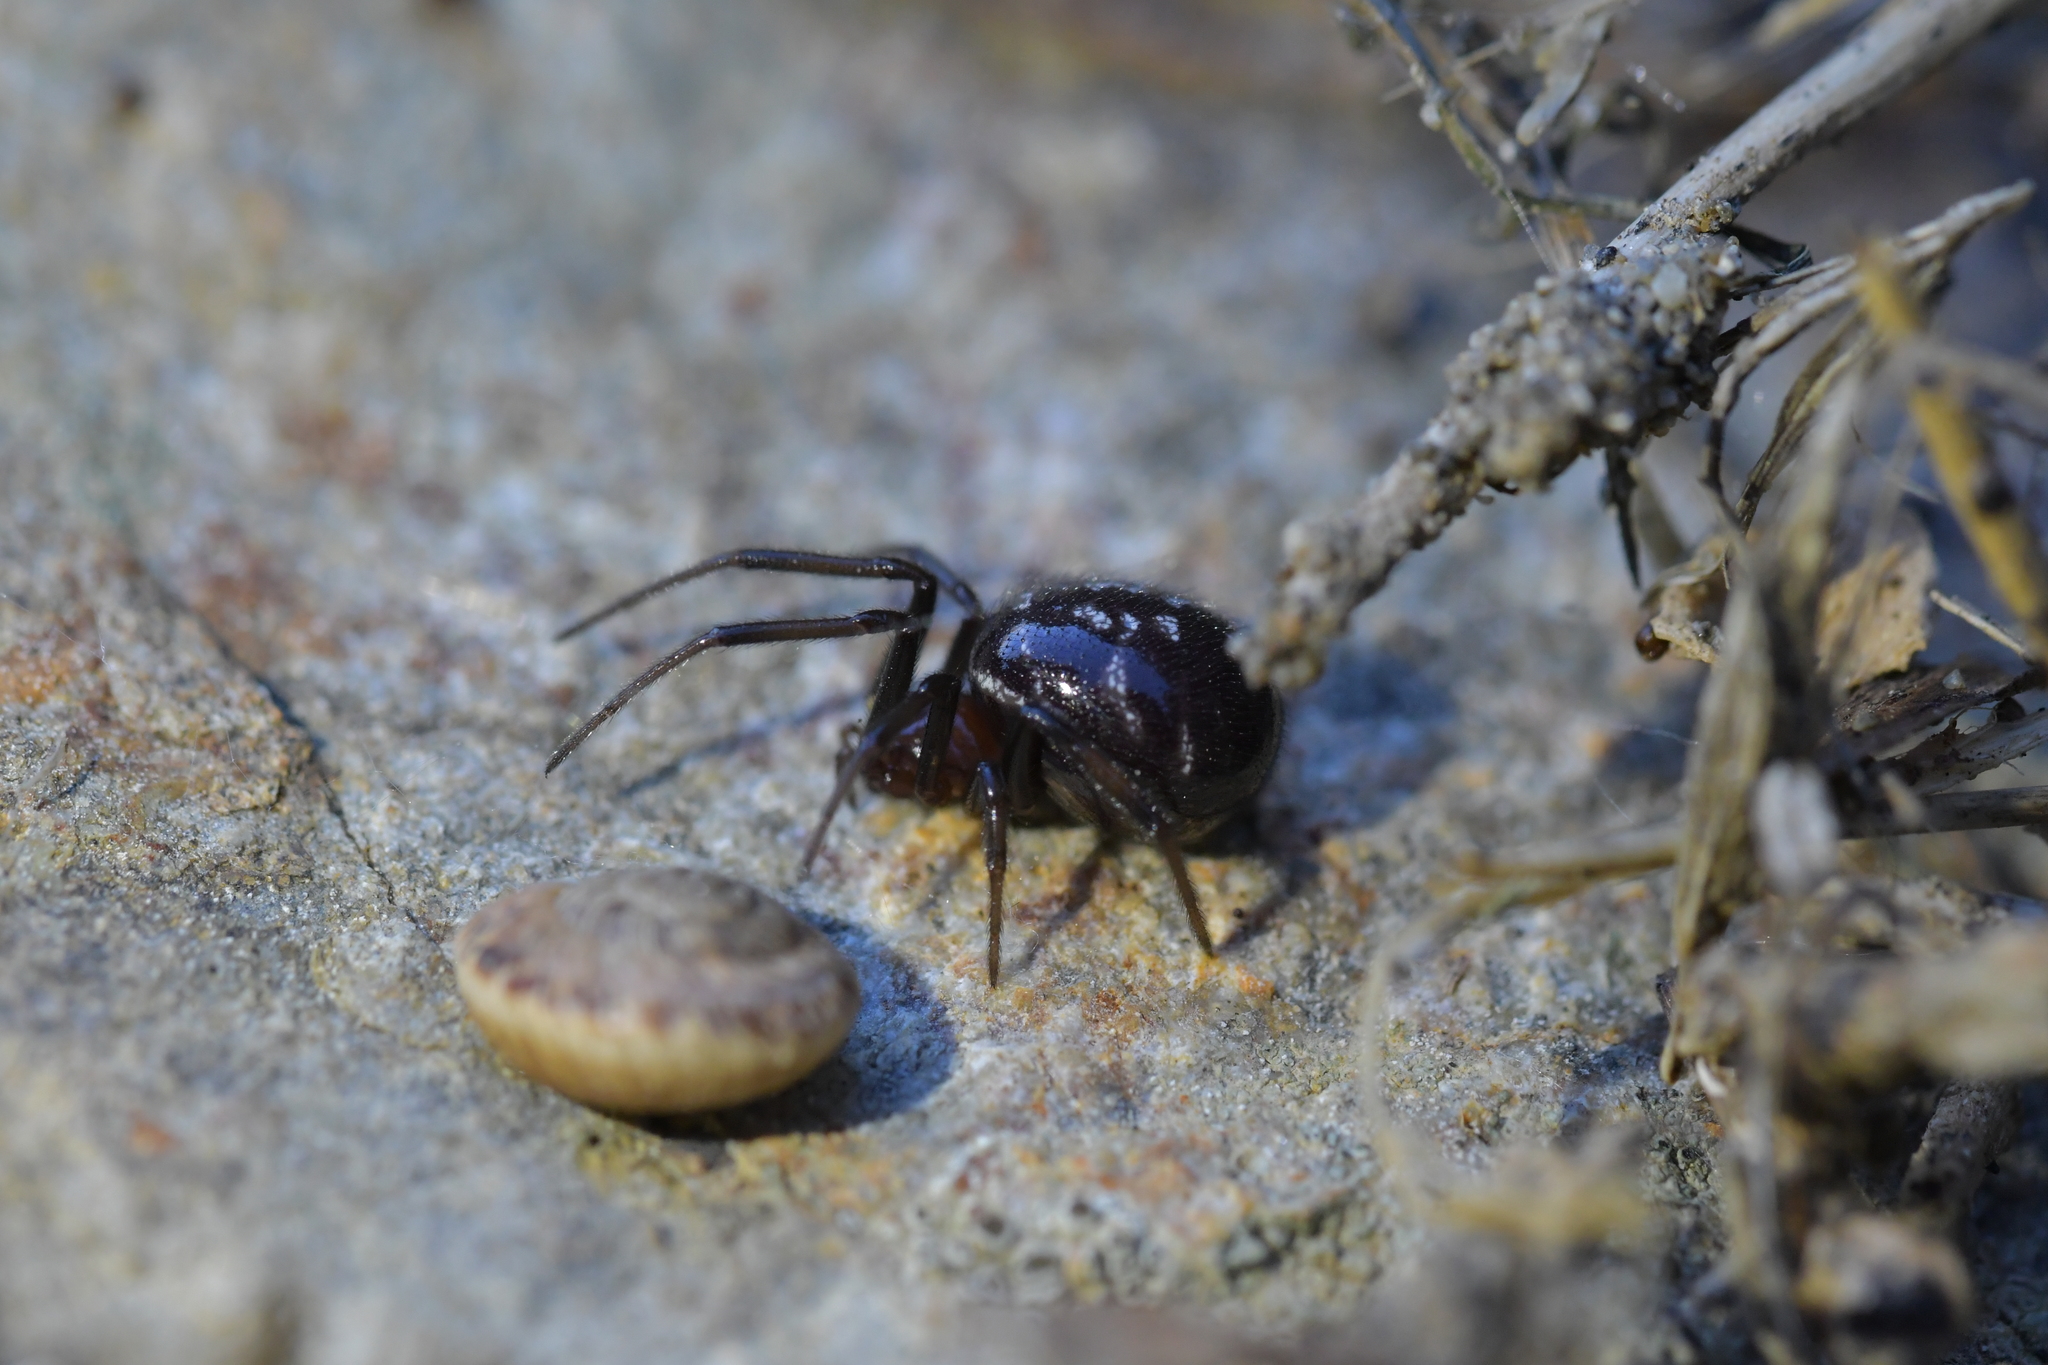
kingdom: Animalia
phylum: Arthropoda
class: Arachnida
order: Araneae
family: Theridiidae
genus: Steatoda
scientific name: Steatoda capensis
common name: Cobweb weaver
